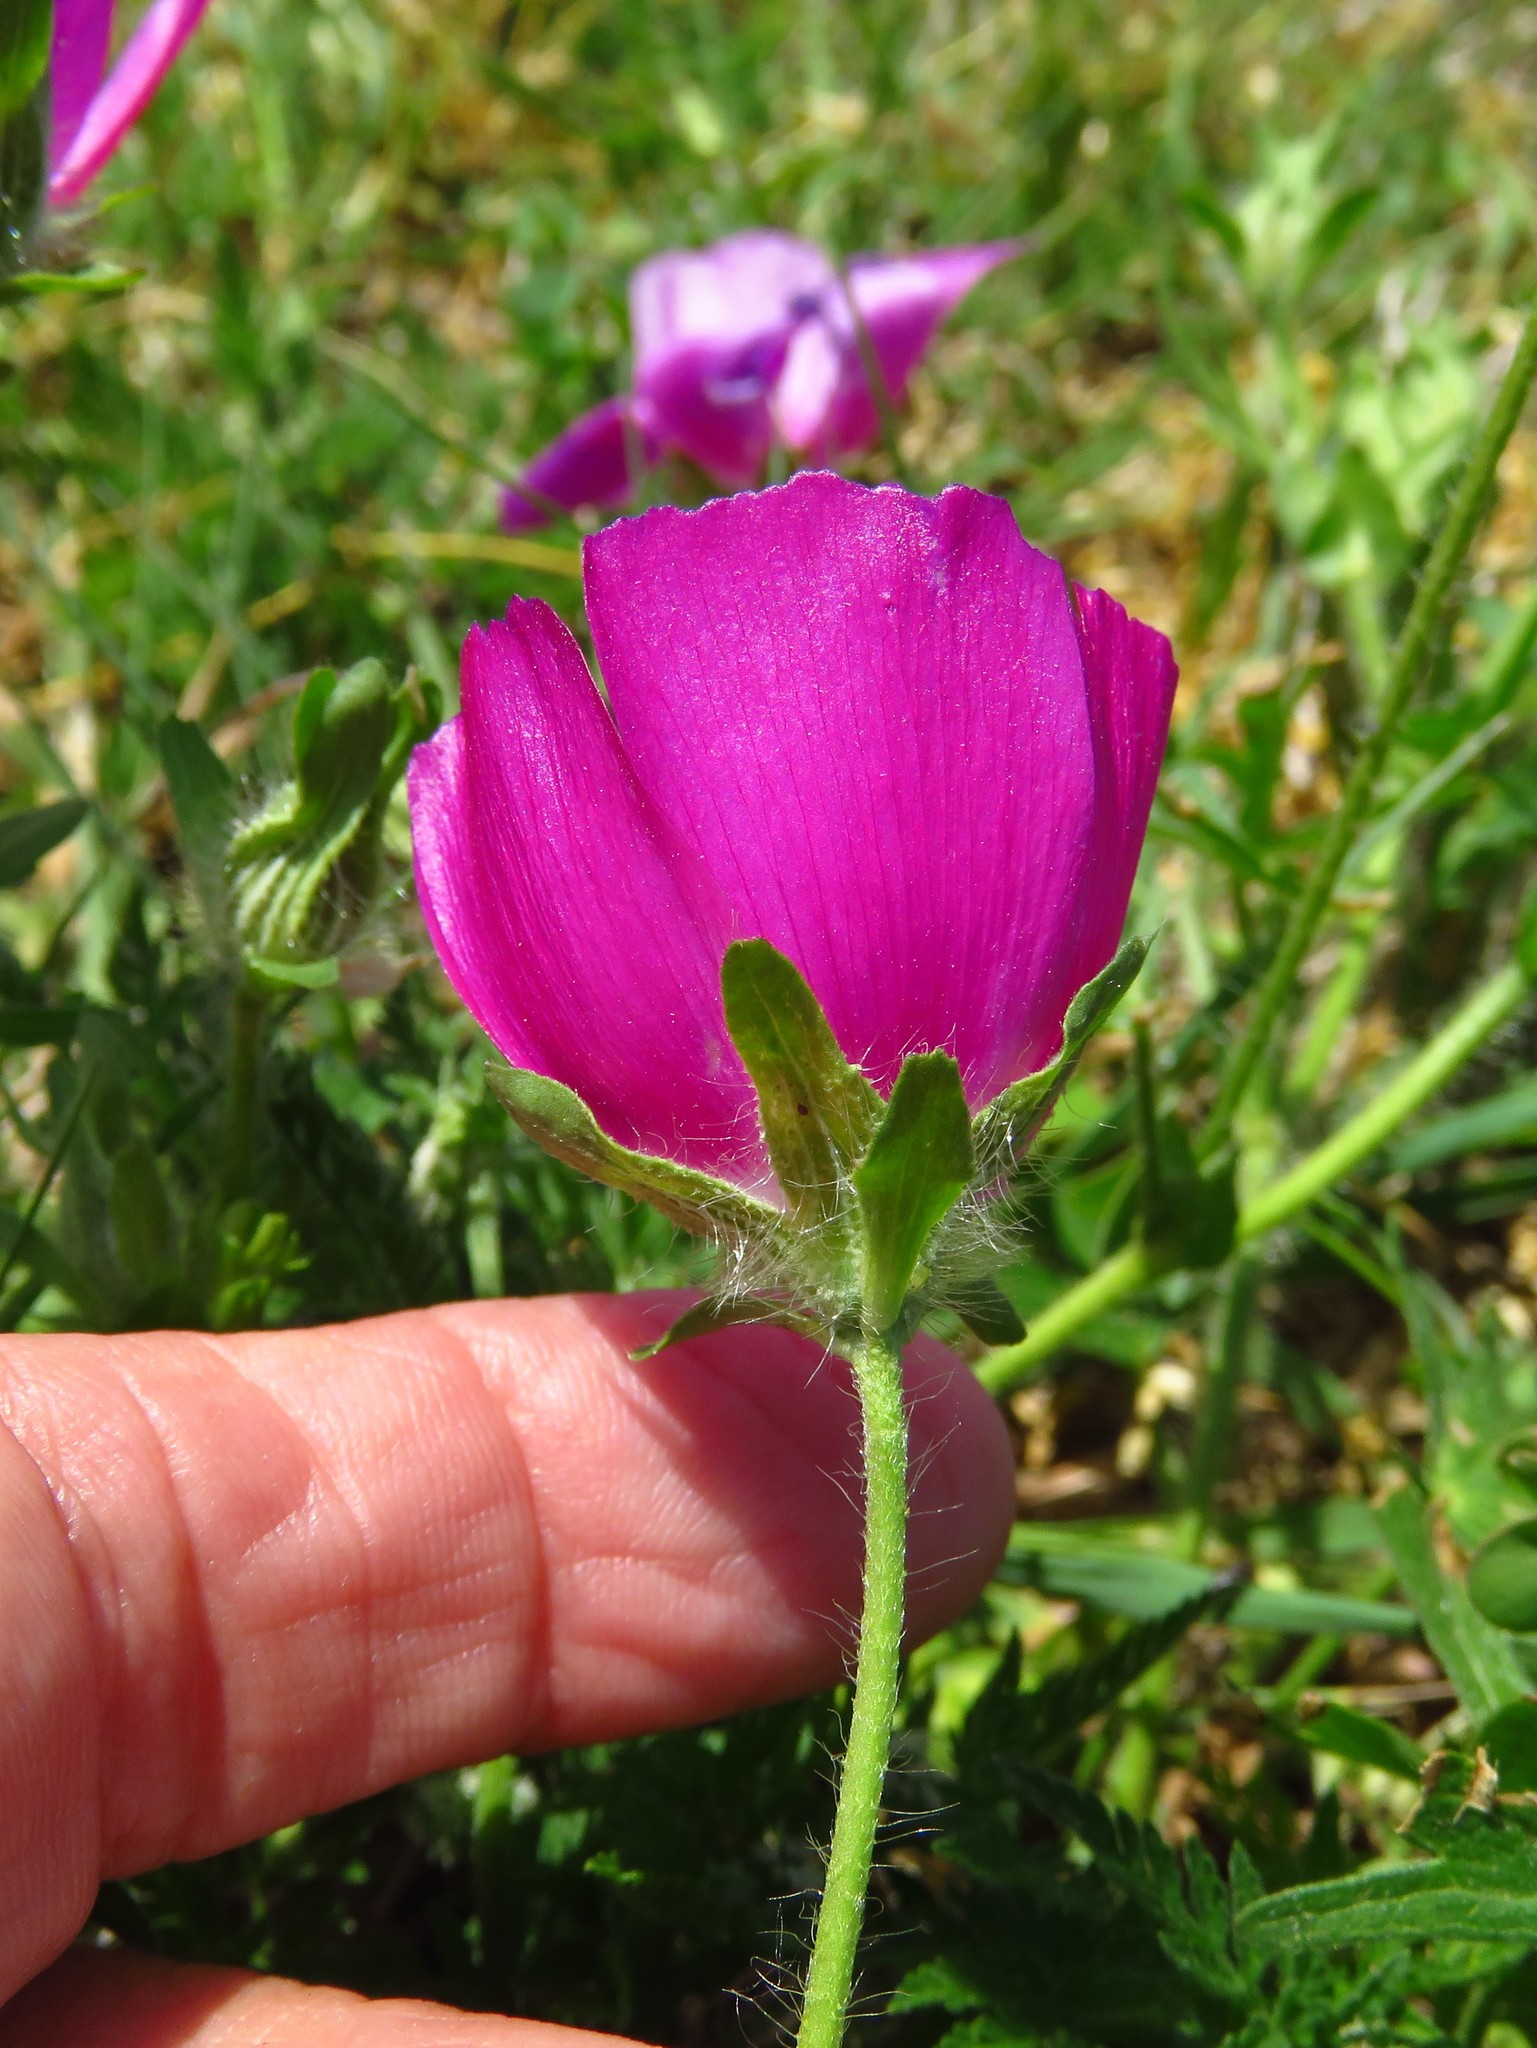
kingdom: Plantae
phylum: Tracheophyta
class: Magnoliopsida
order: Malvales
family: Malvaceae
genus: Callirhoe
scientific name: Callirhoe involucrata
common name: Purple poppy-mallow
